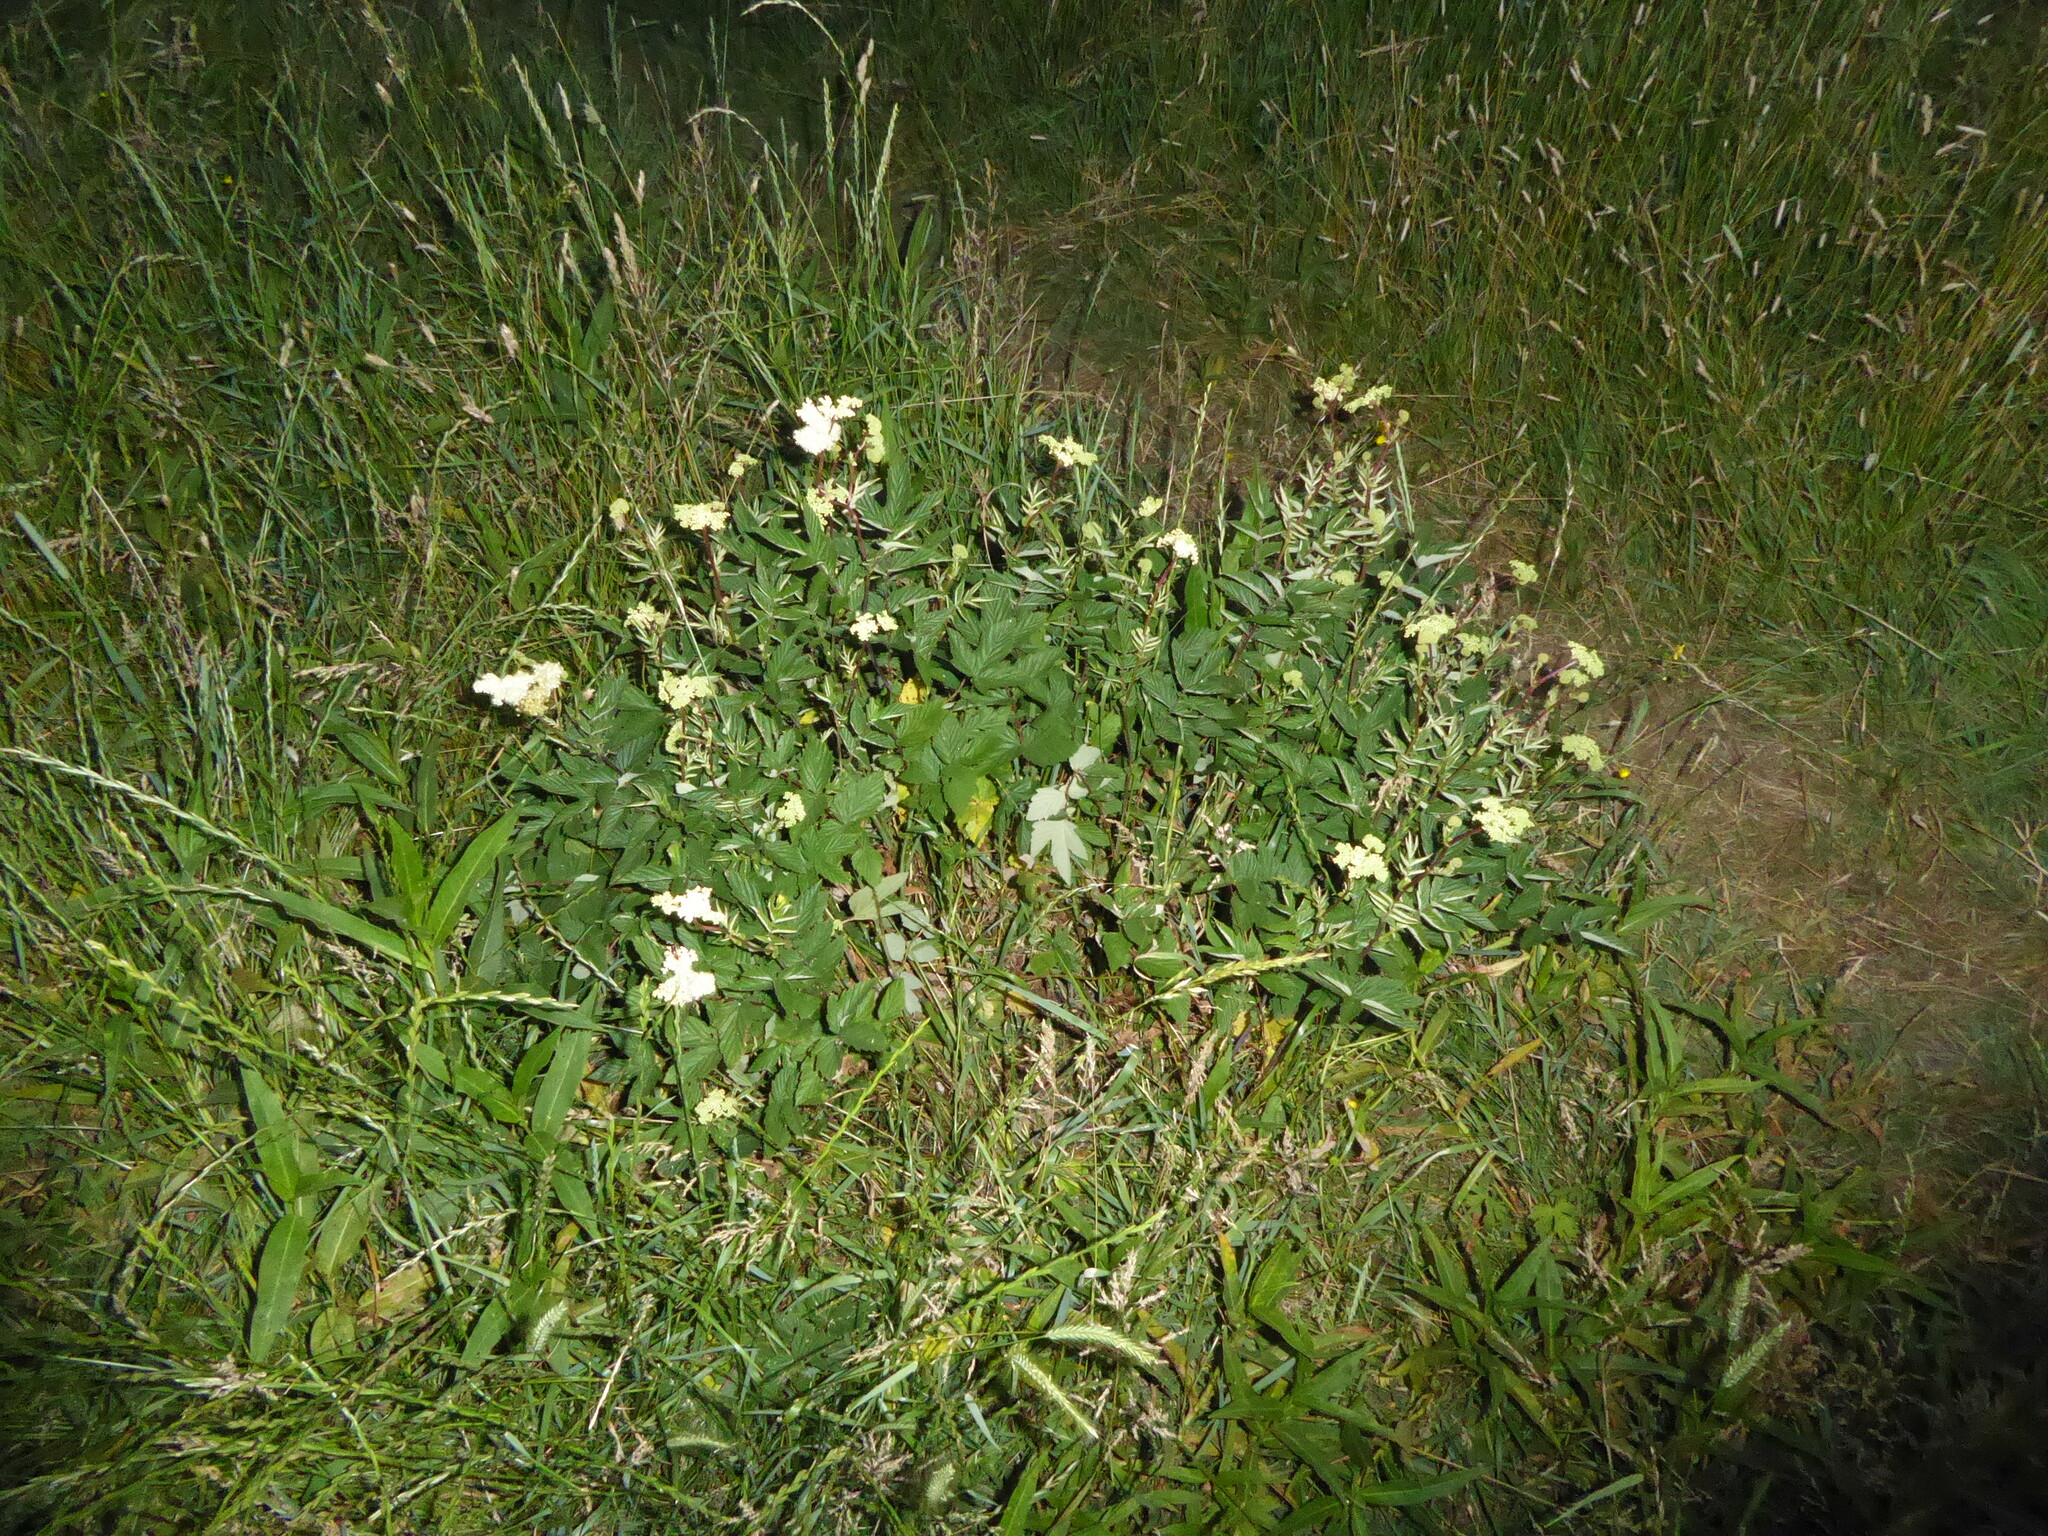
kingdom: Plantae
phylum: Tracheophyta
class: Magnoliopsida
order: Rosales
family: Rosaceae
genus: Filipendula
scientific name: Filipendula ulmaria
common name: Meadowsweet
